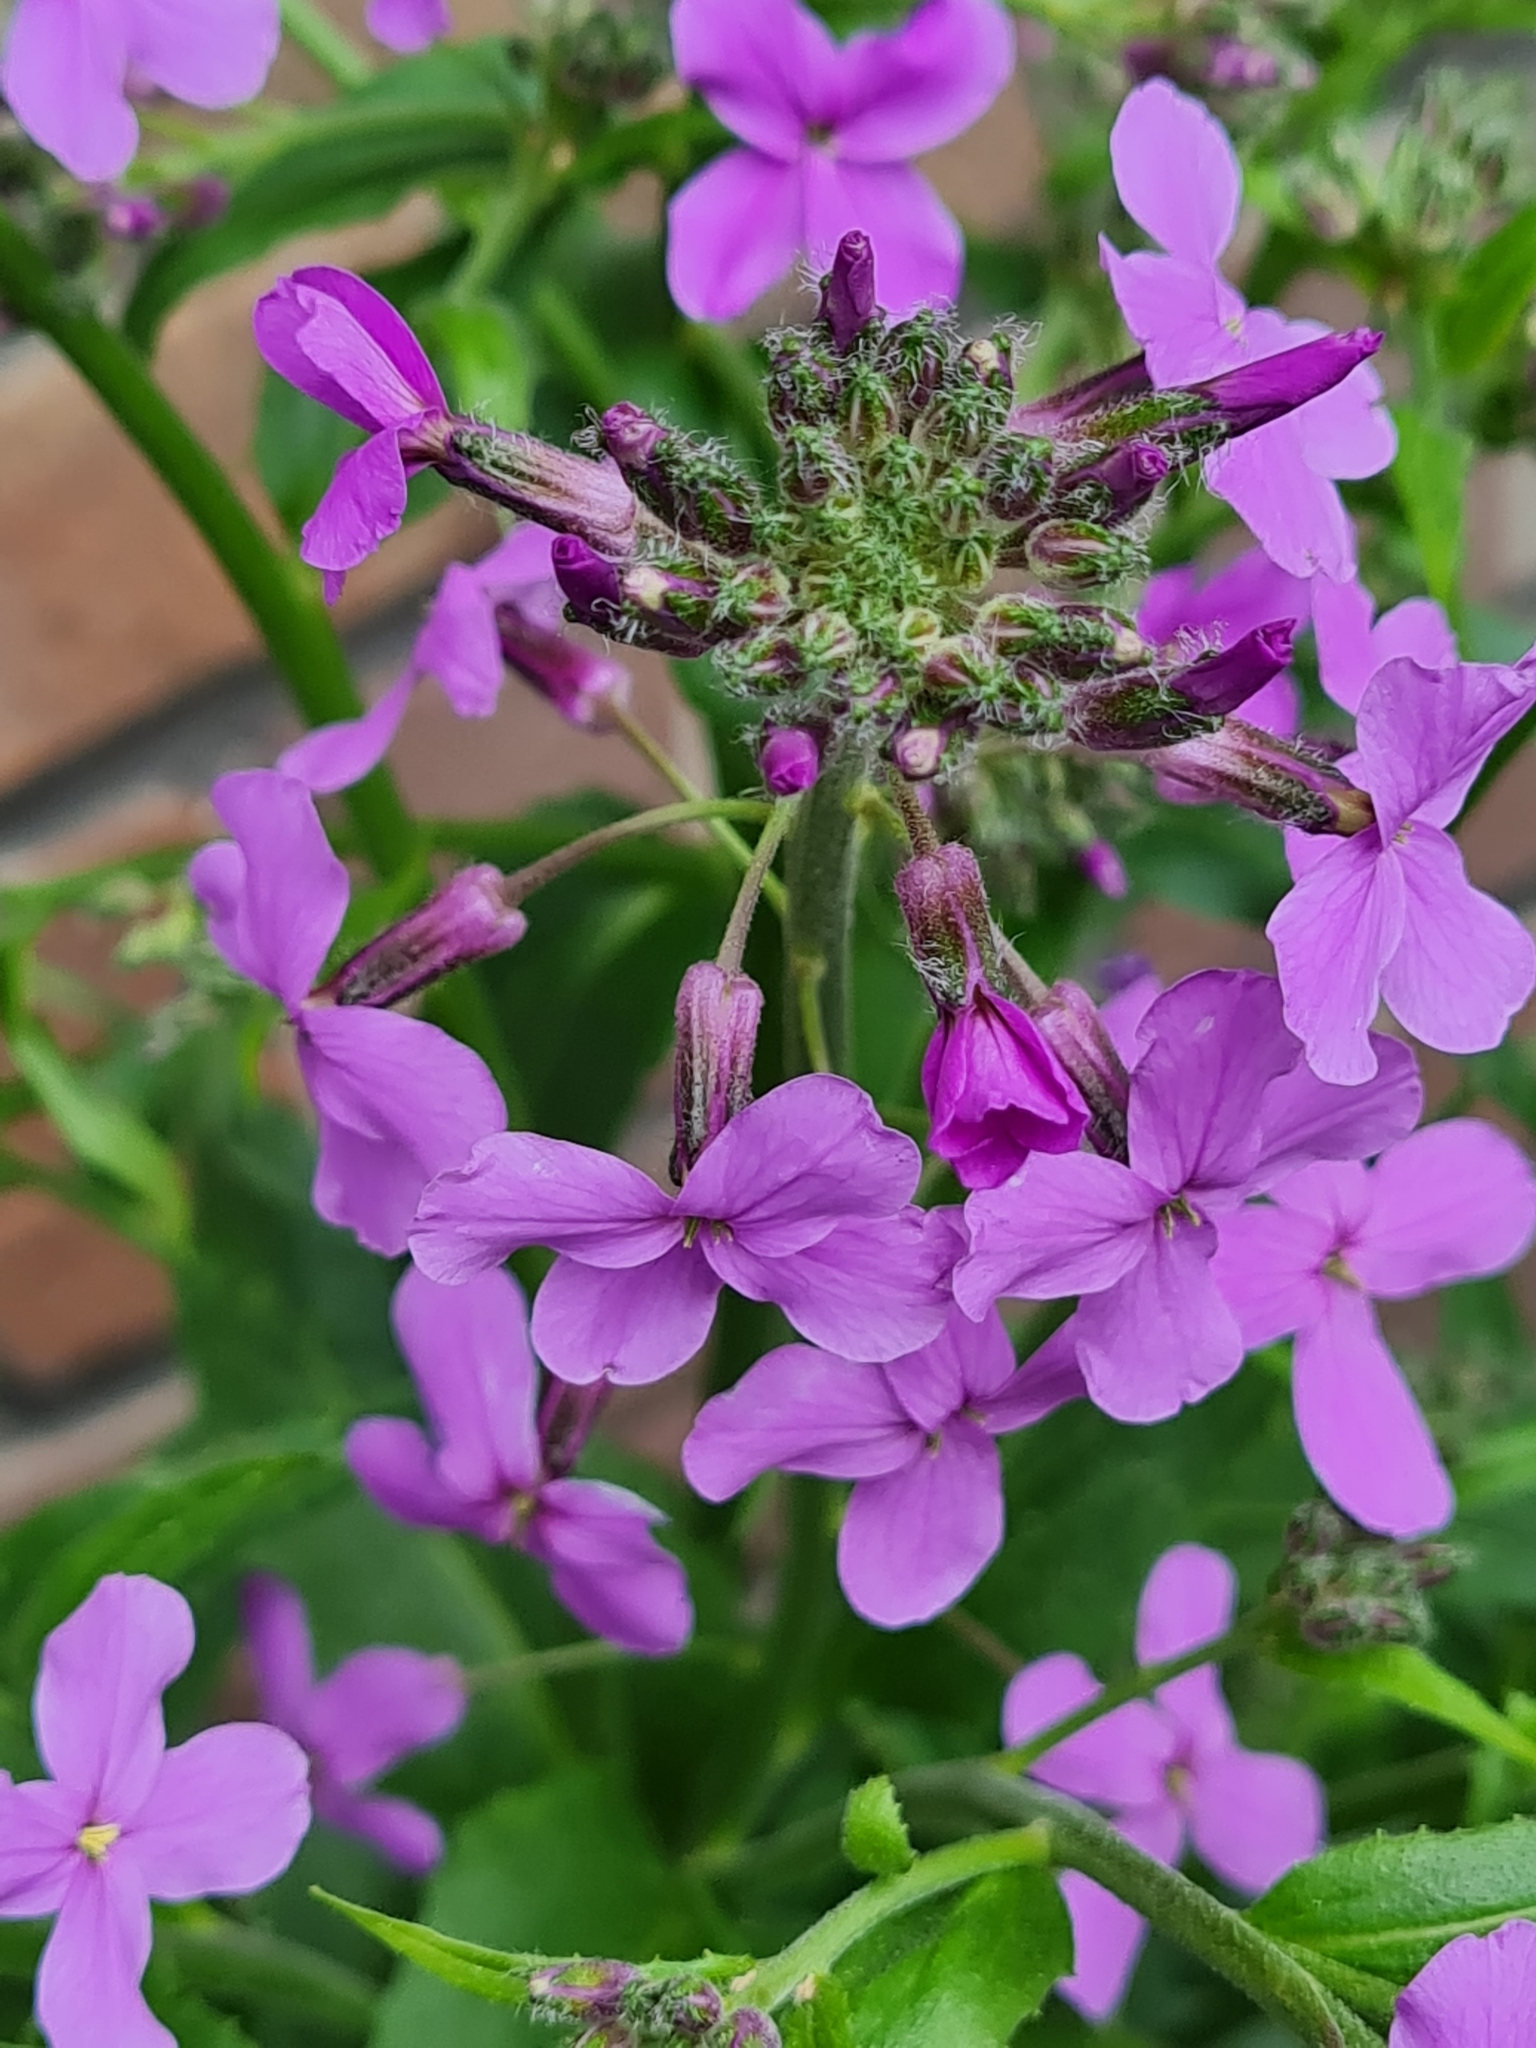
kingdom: Plantae
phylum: Tracheophyta
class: Magnoliopsida
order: Brassicales
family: Brassicaceae
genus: Hesperis
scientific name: Hesperis matronalis
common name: Dame's-violet
